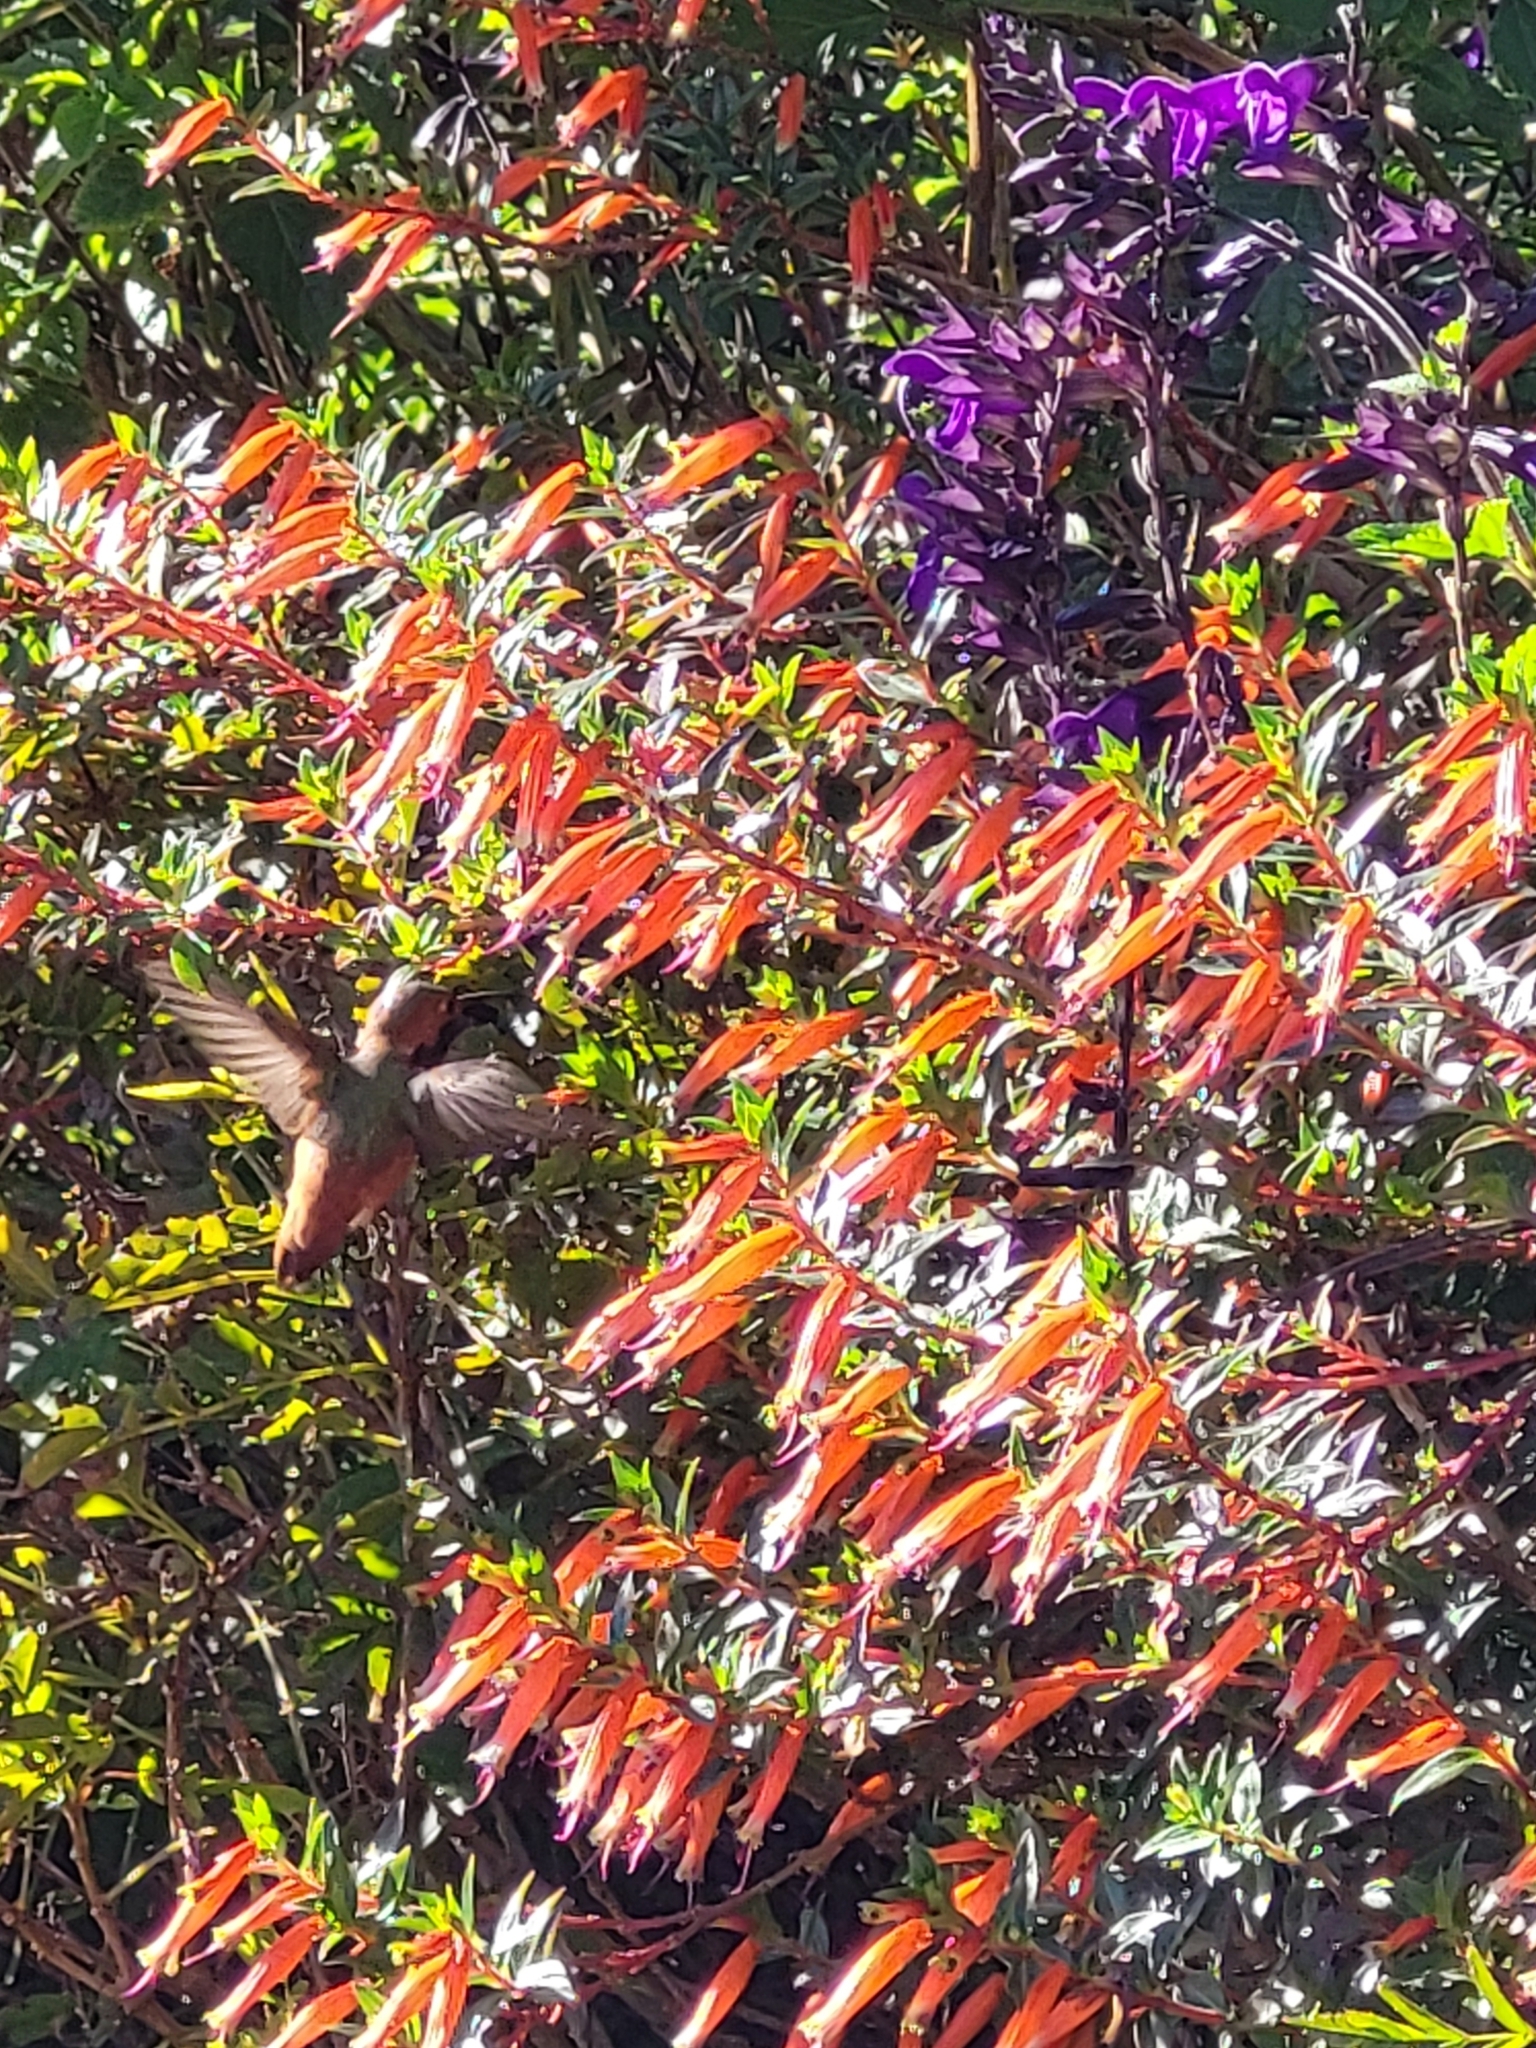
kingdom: Animalia
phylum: Chordata
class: Aves
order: Apodiformes
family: Trochilidae
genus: Selasphorus
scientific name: Selasphorus sasin
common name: Allen's hummingbird
